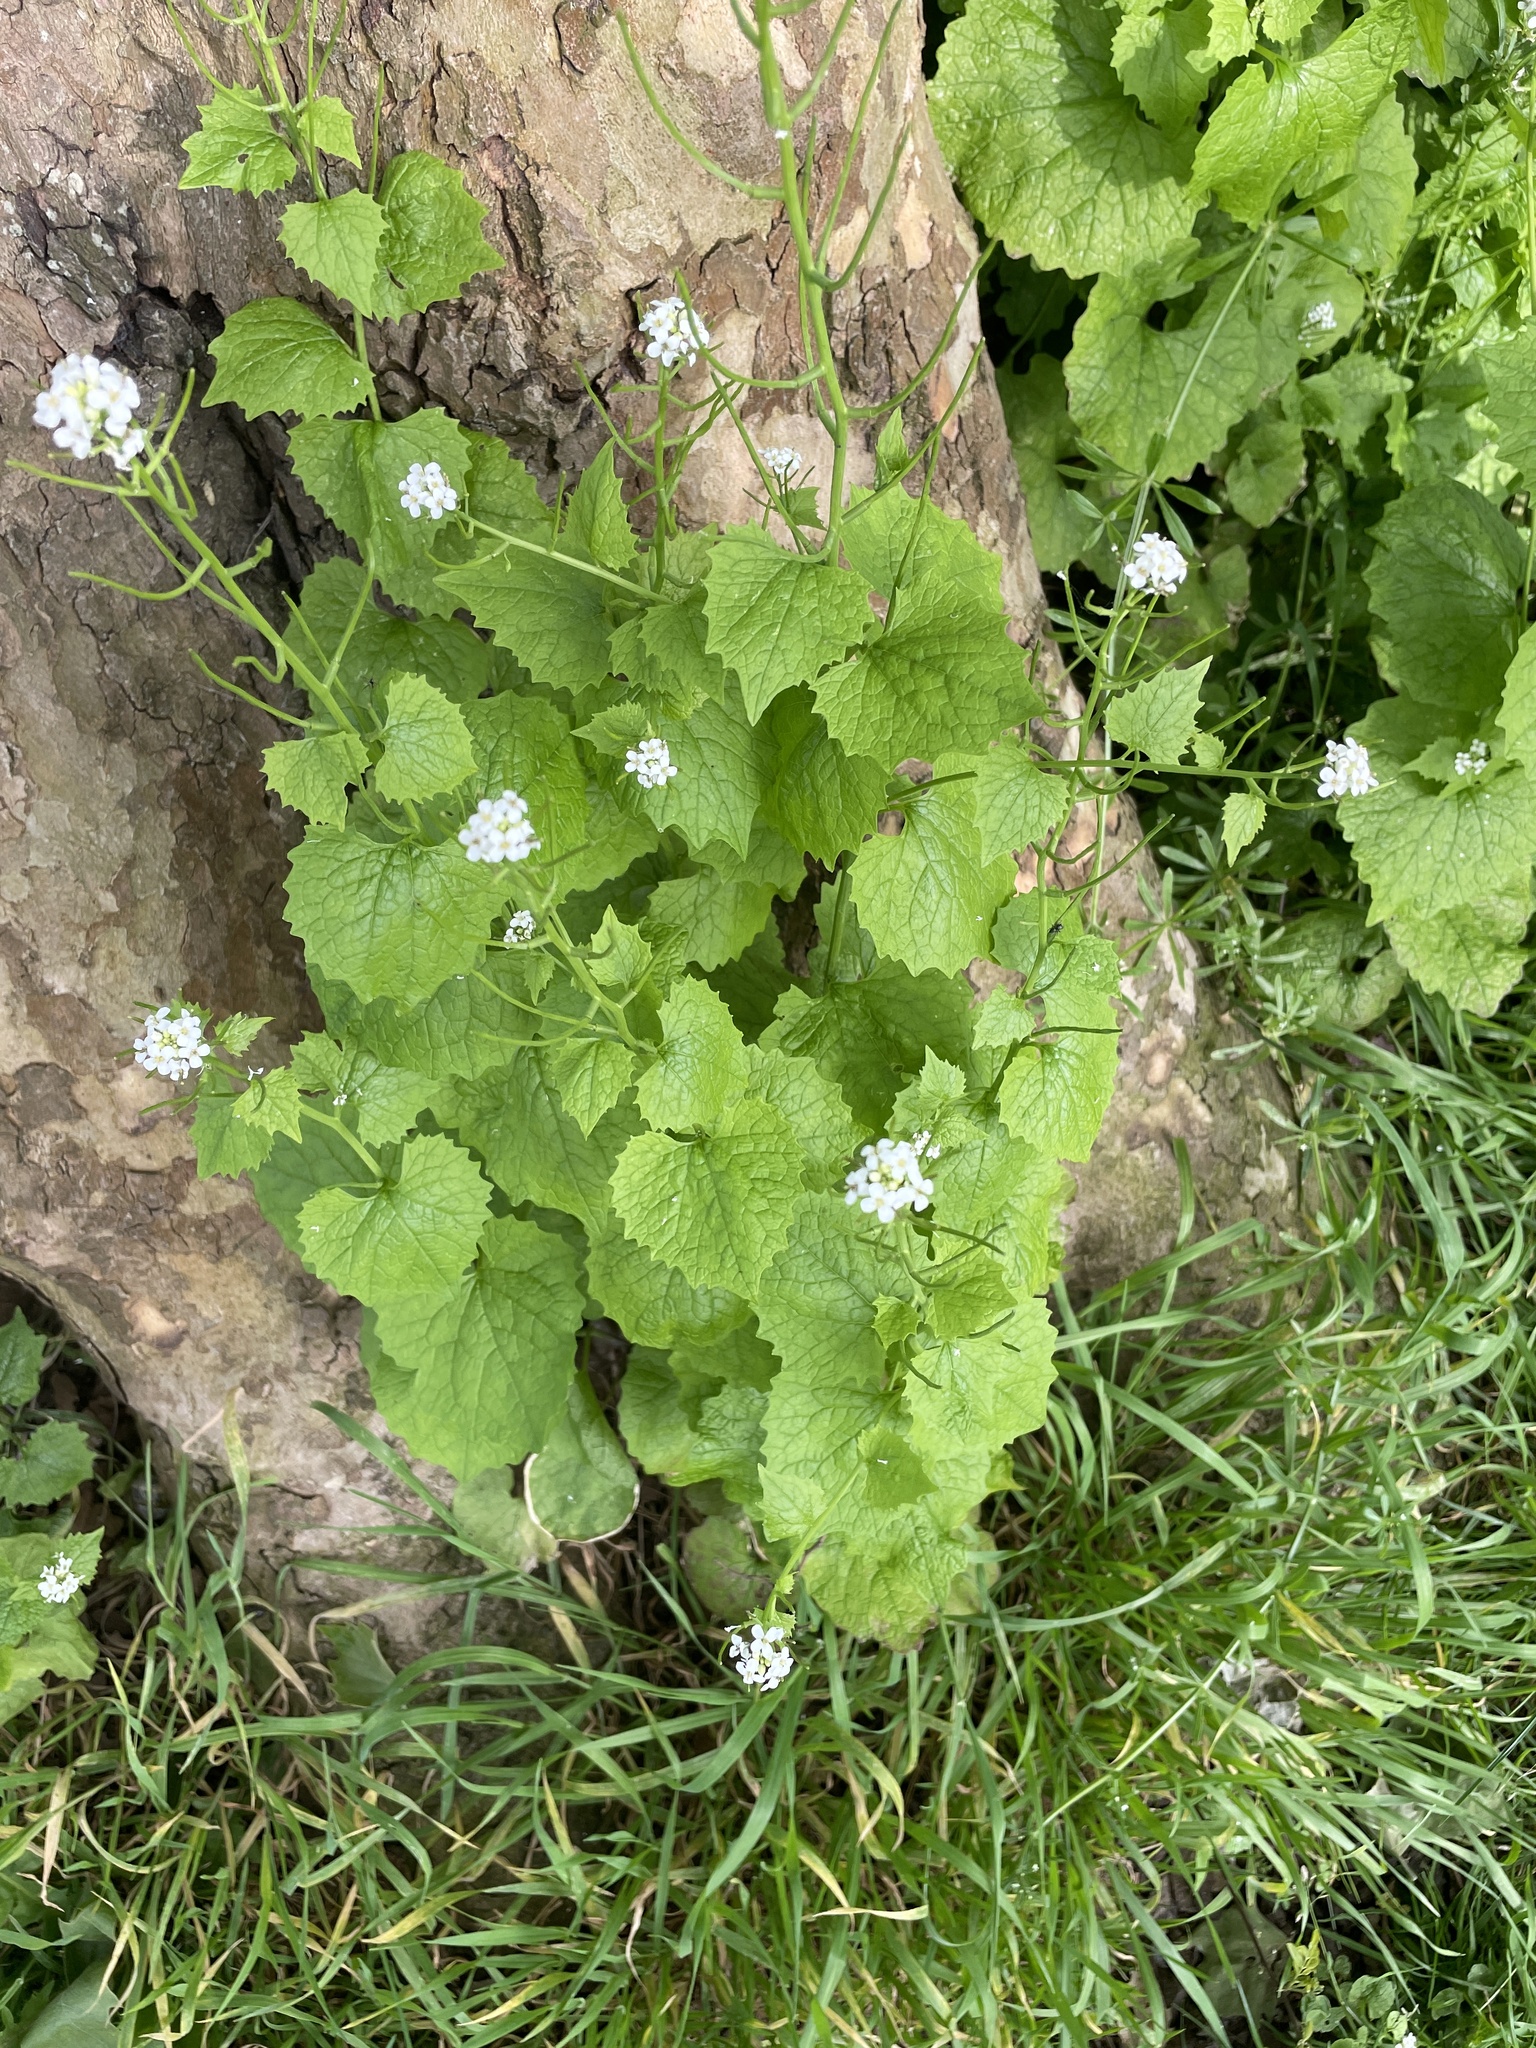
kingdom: Plantae
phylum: Tracheophyta
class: Magnoliopsida
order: Brassicales
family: Brassicaceae
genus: Alliaria
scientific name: Alliaria petiolata
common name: Garlic mustard
